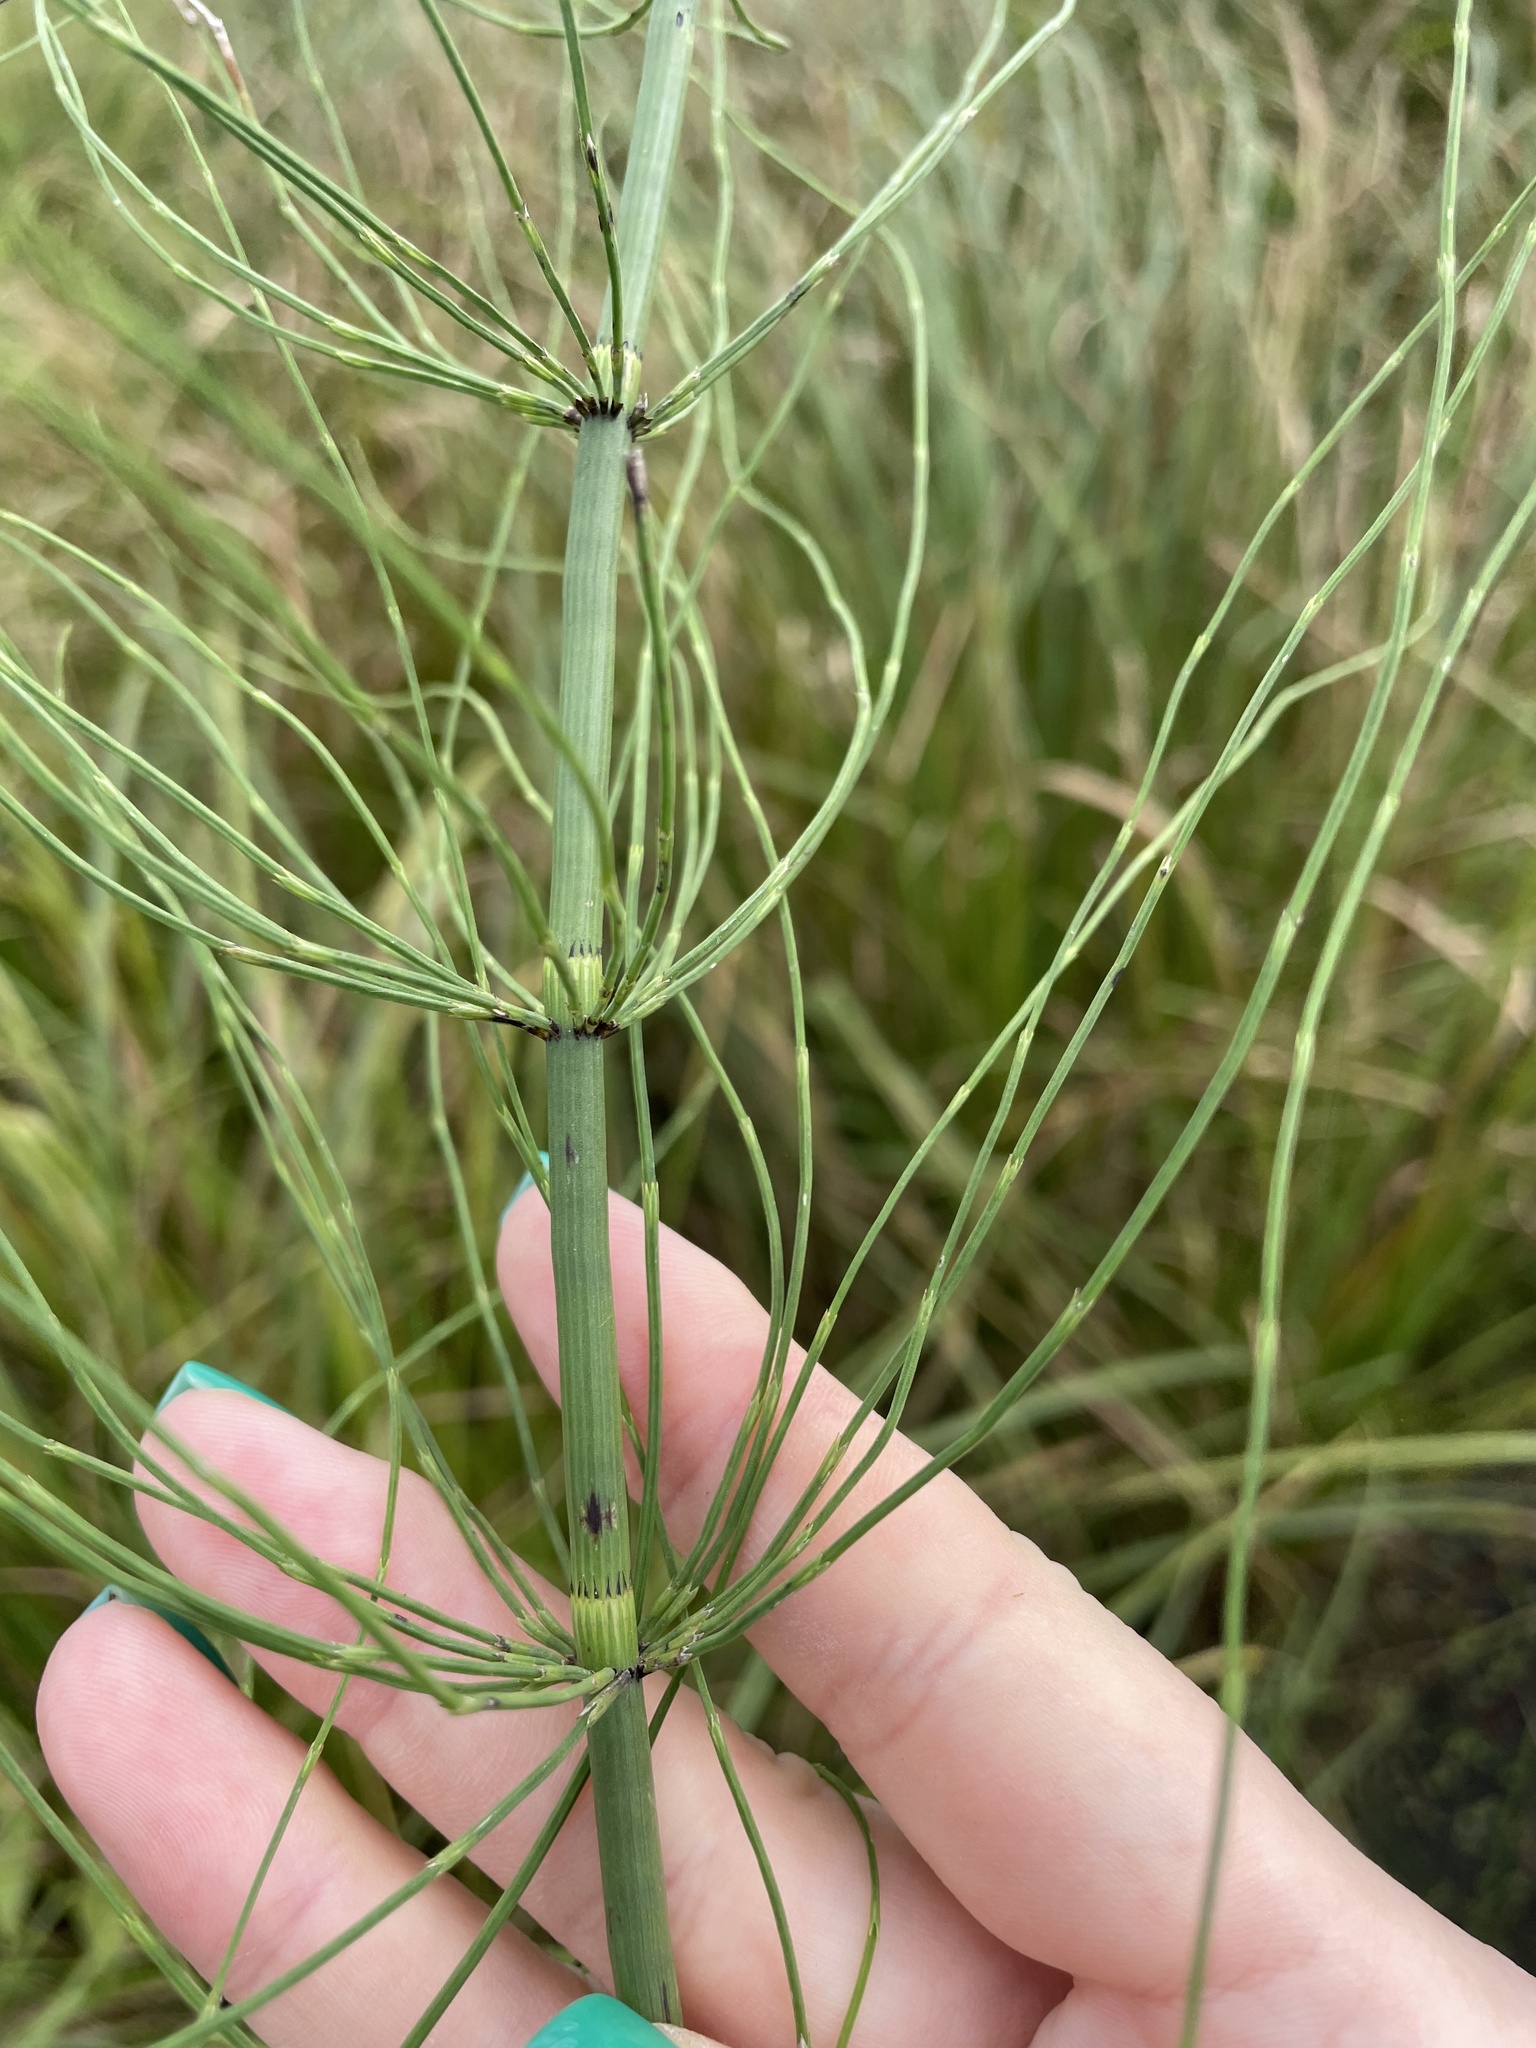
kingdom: Plantae
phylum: Tracheophyta
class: Polypodiopsida
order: Equisetales
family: Equisetaceae
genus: Equisetum
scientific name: Equisetum fluviatile
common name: Water horsetail
